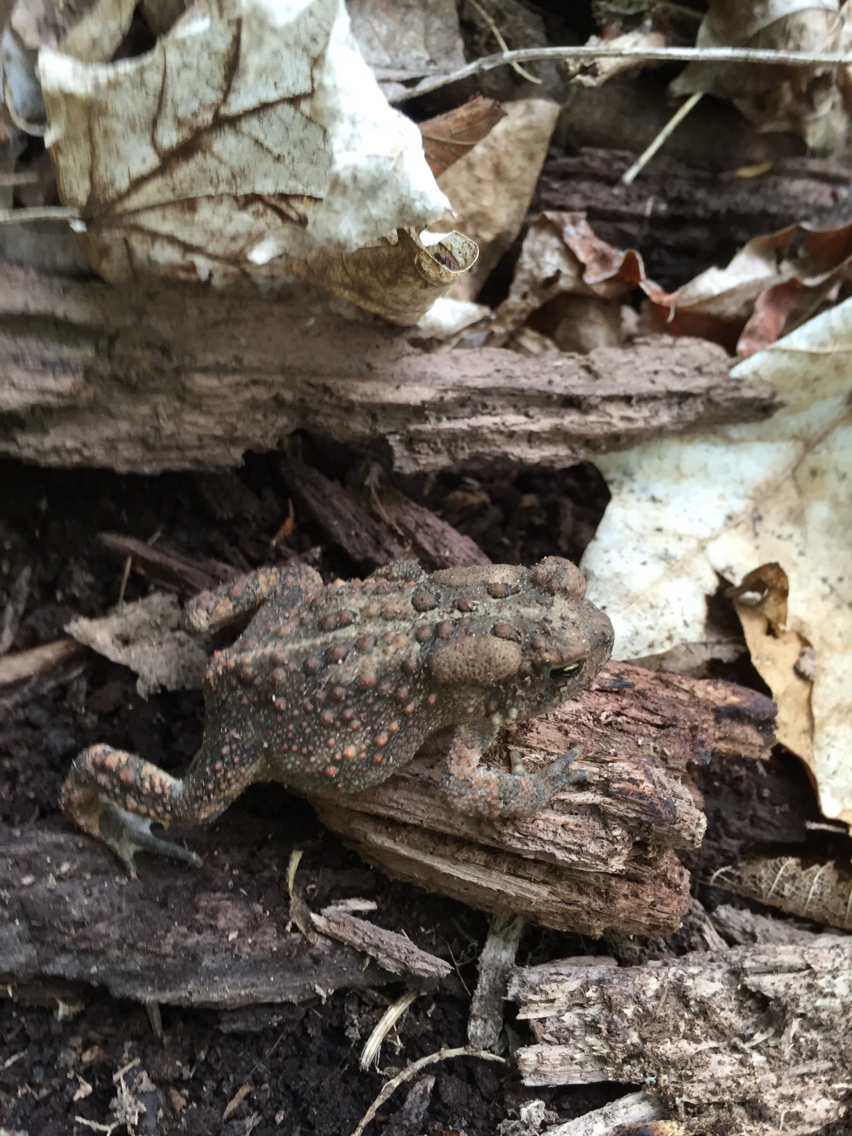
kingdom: Animalia
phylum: Chordata
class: Amphibia
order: Anura
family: Bufonidae
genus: Anaxyrus
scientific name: Anaxyrus americanus
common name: American toad
